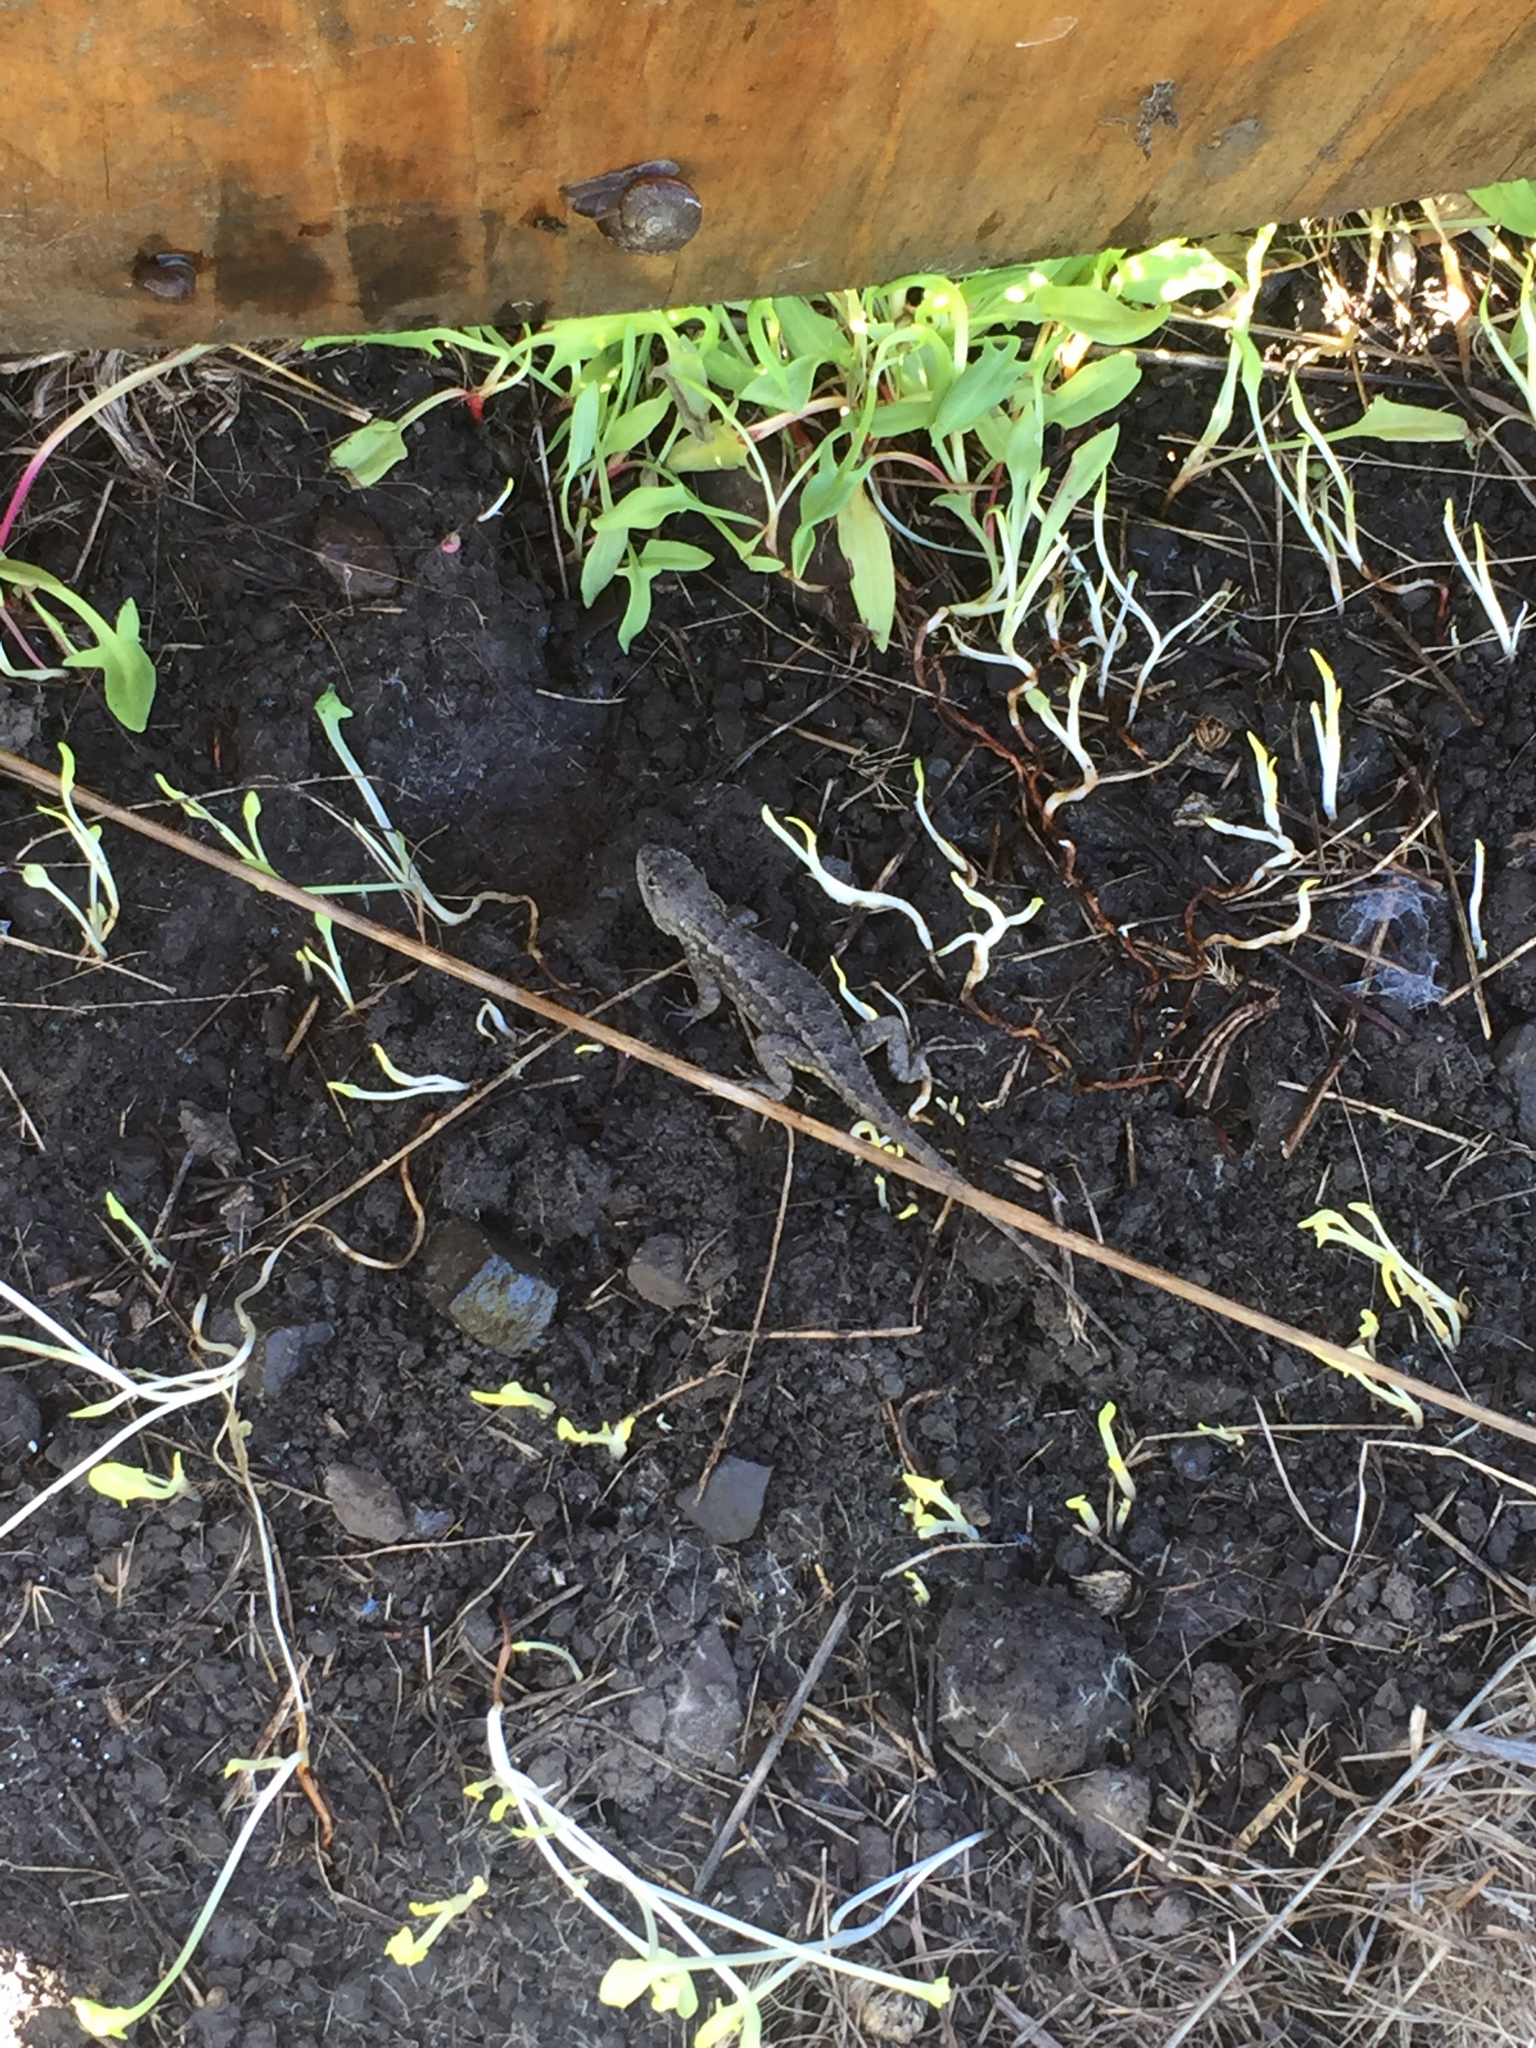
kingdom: Animalia
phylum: Chordata
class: Squamata
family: Phrynosomatidae
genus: Sceloporus
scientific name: Sceloporus occidentalis
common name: Western fence lizard
